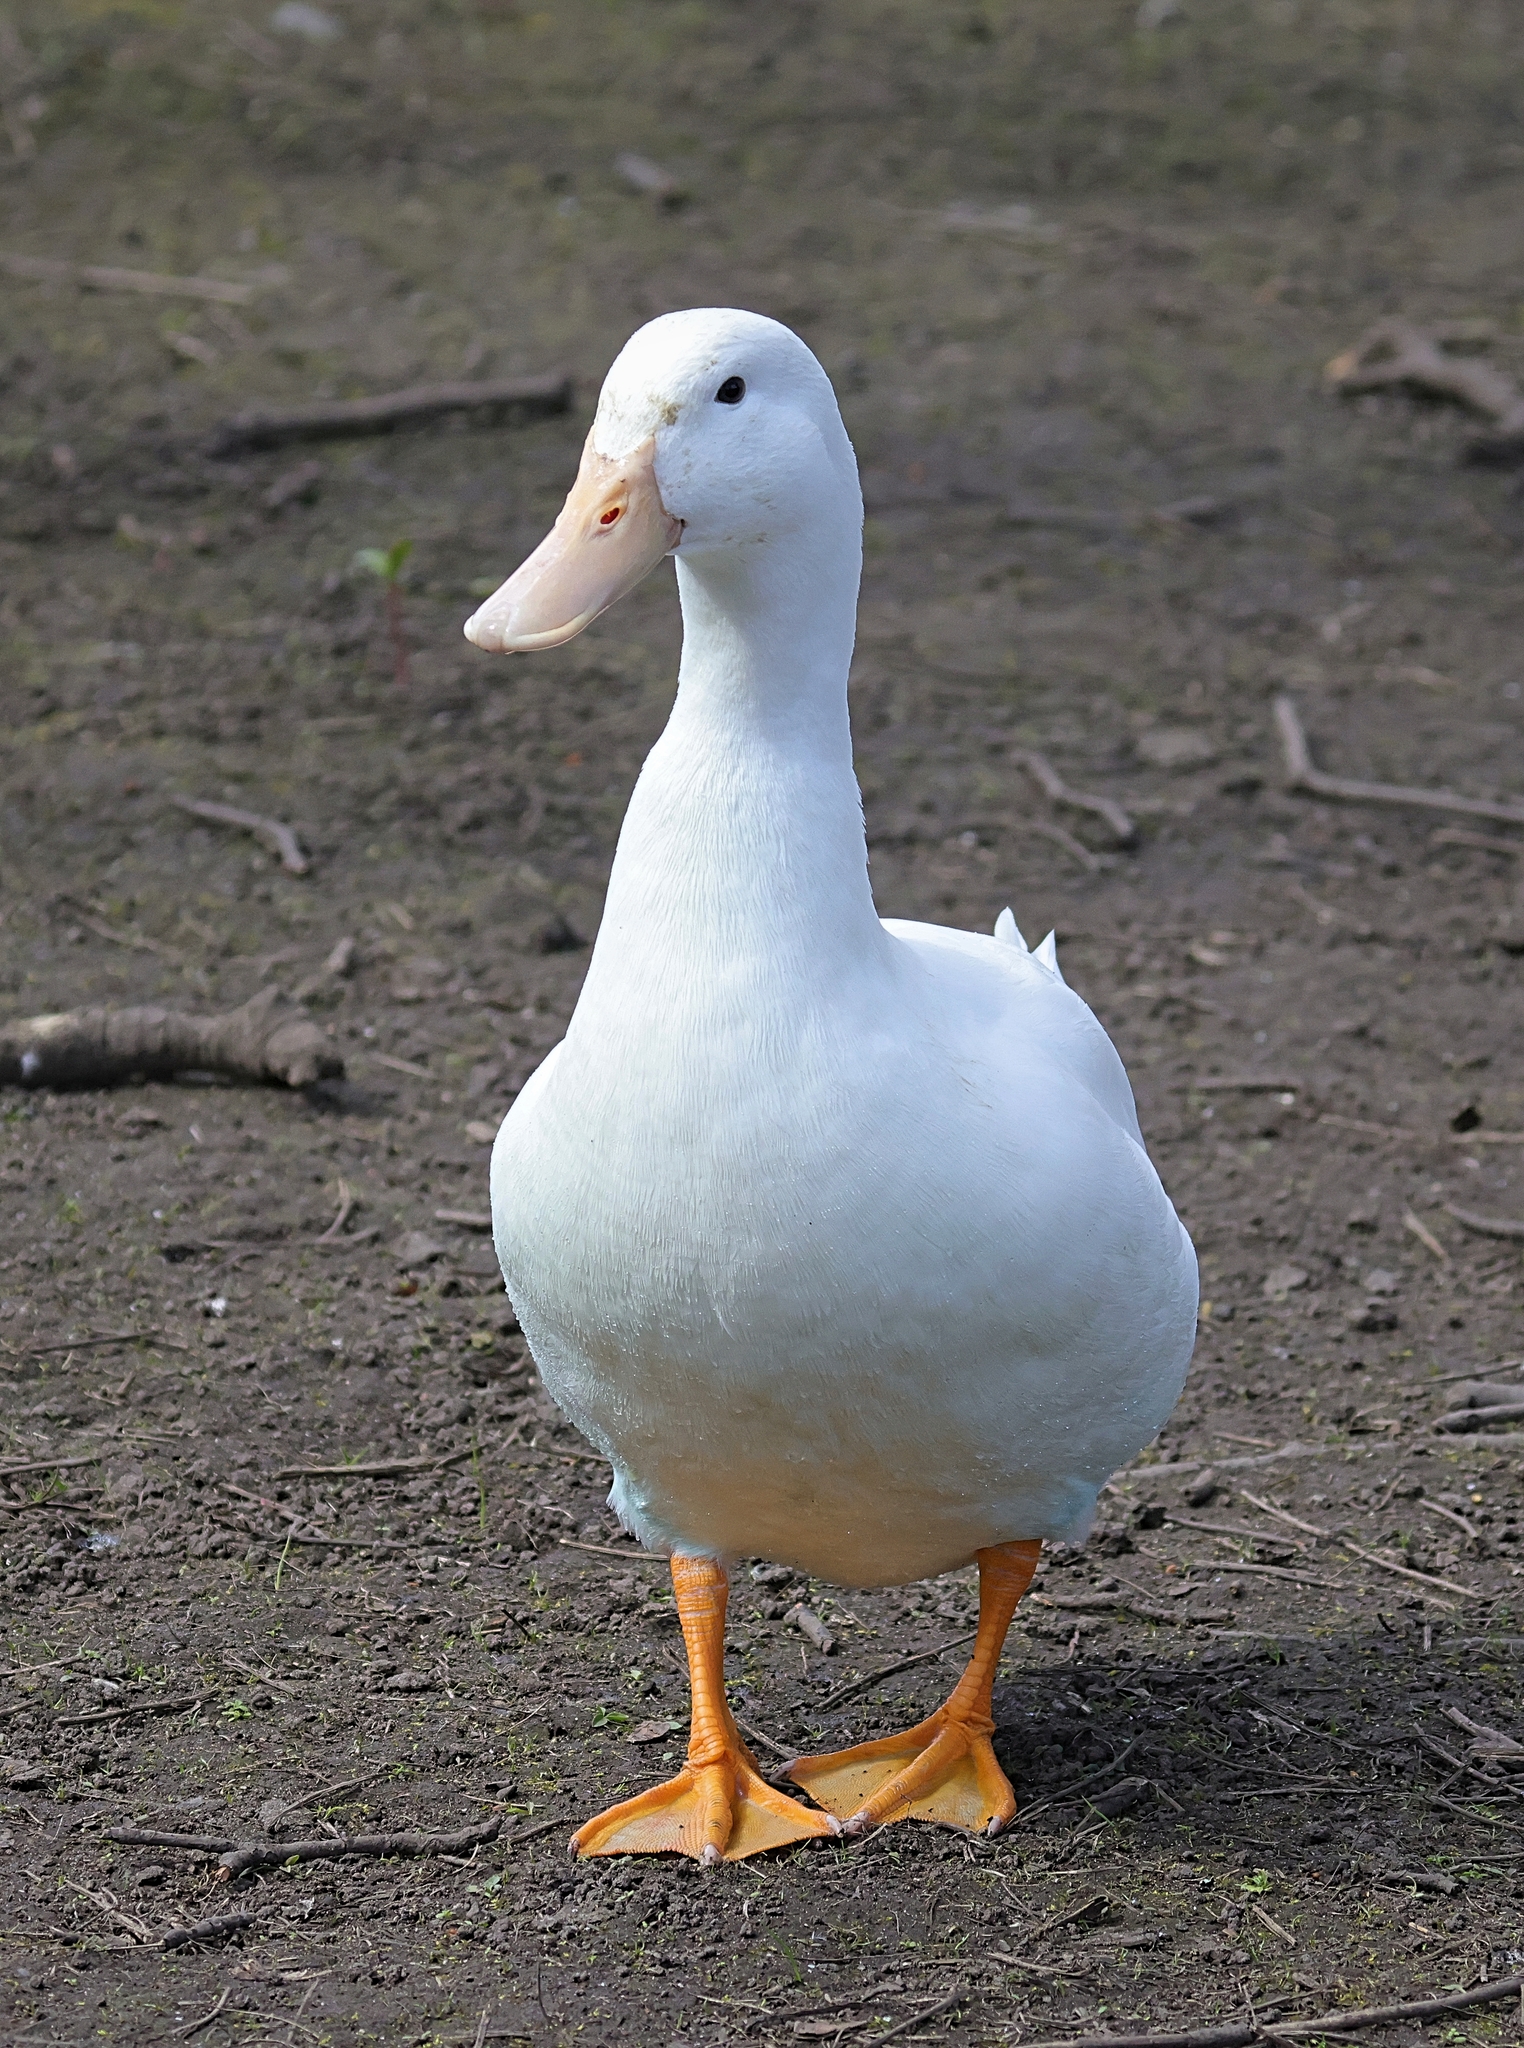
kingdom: Animalia
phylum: Chordata
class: Aves
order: Anseriformes
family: Anatidae
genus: Anas
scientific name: Anas platyrhynchos
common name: Mallard
